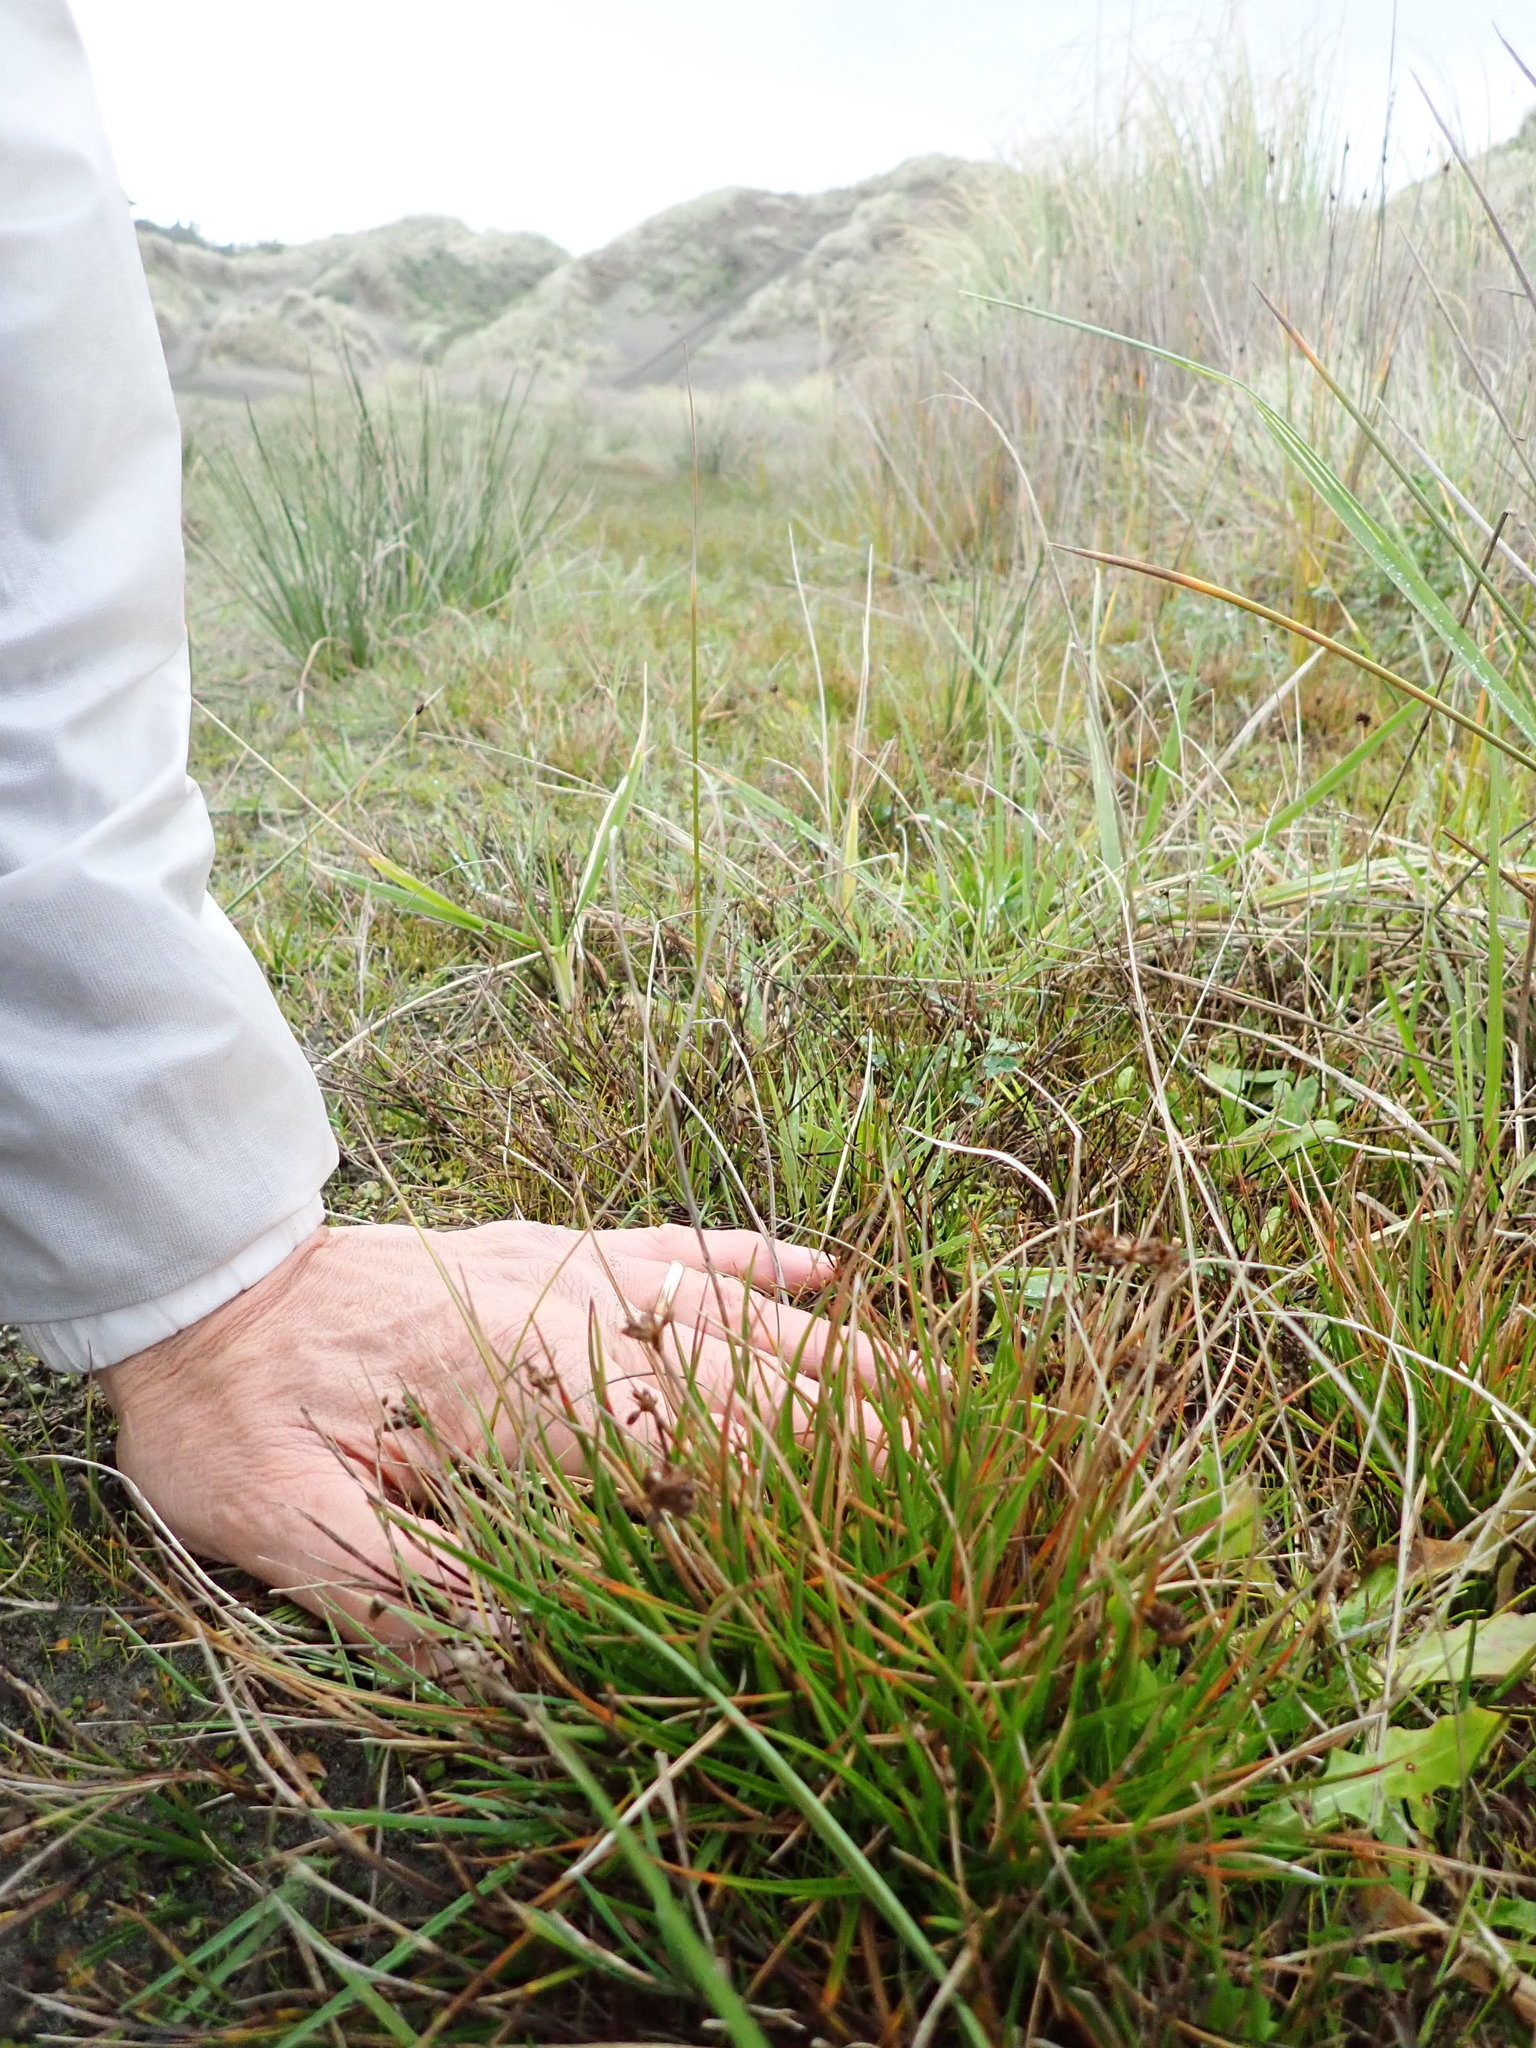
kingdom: Plantae
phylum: Tracheophyta
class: Liliopsida
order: Poales
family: Juncaceae
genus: Juncus
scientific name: Juncus caespiticius
